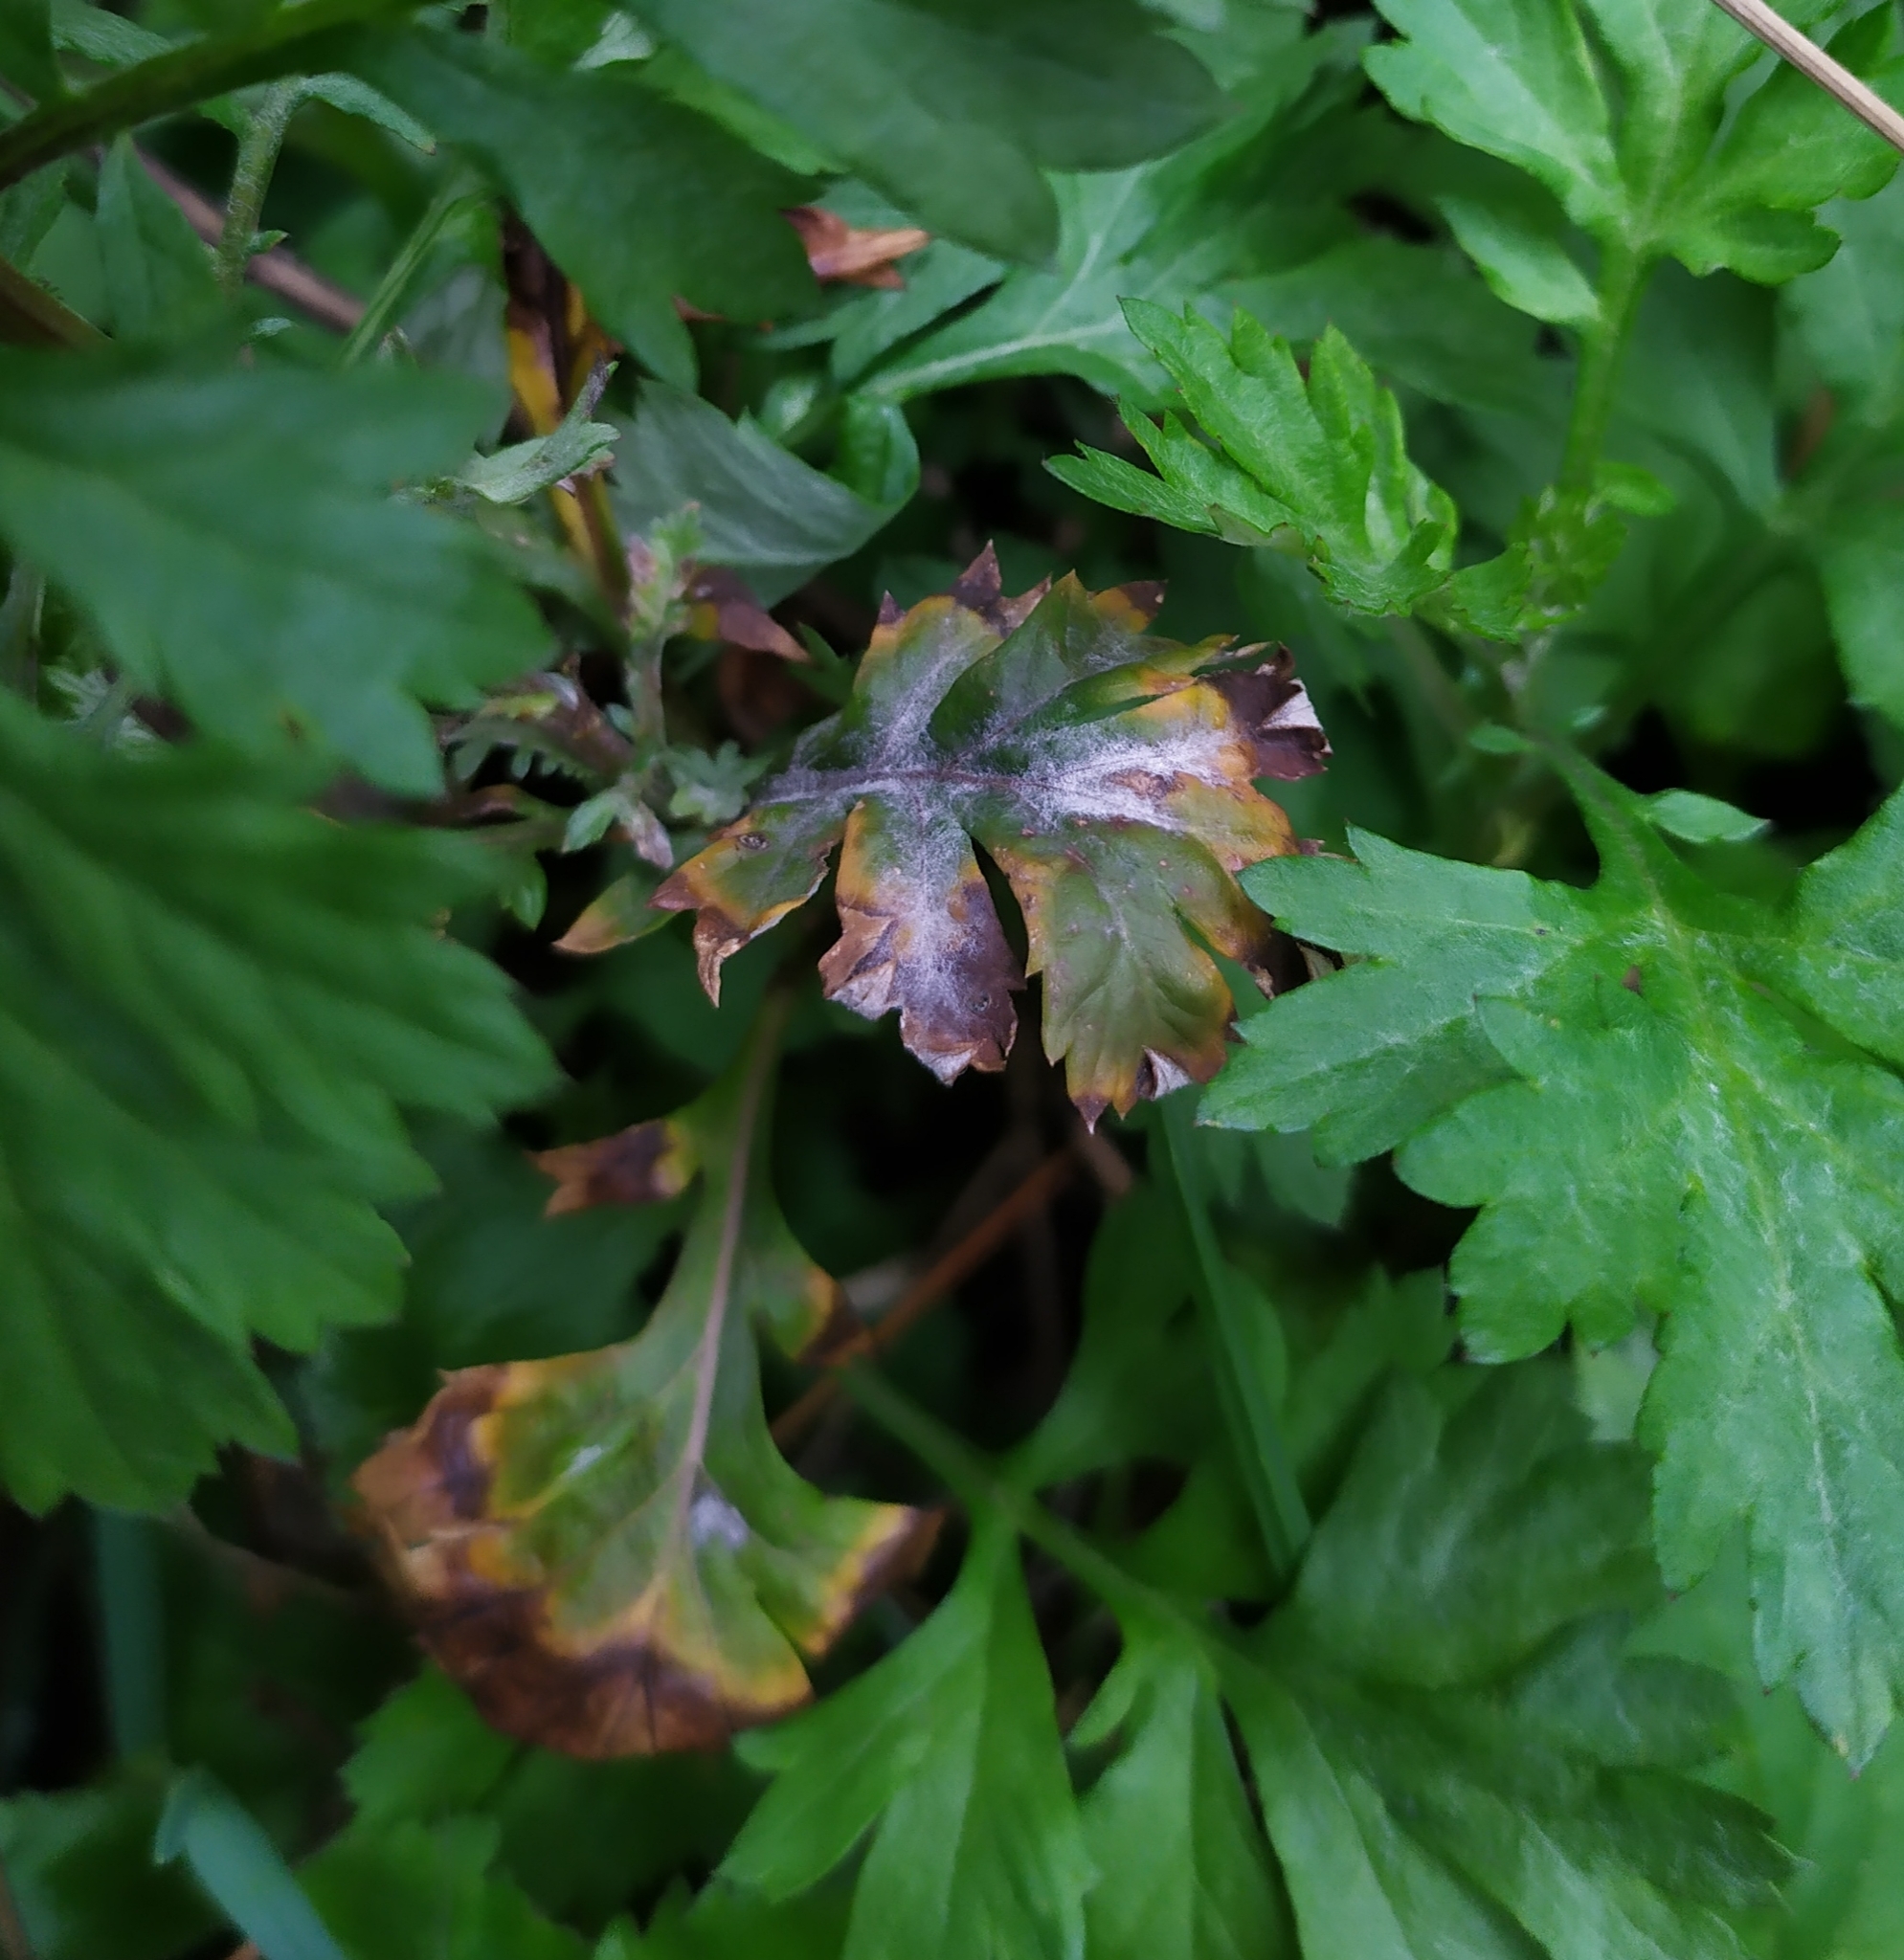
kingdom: Fungi
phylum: Ascomycota
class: Leotiomycetes
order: Helotiales
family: Erysiphaceae
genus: Golovinomyces
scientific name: Golovinomyces artemisiae
